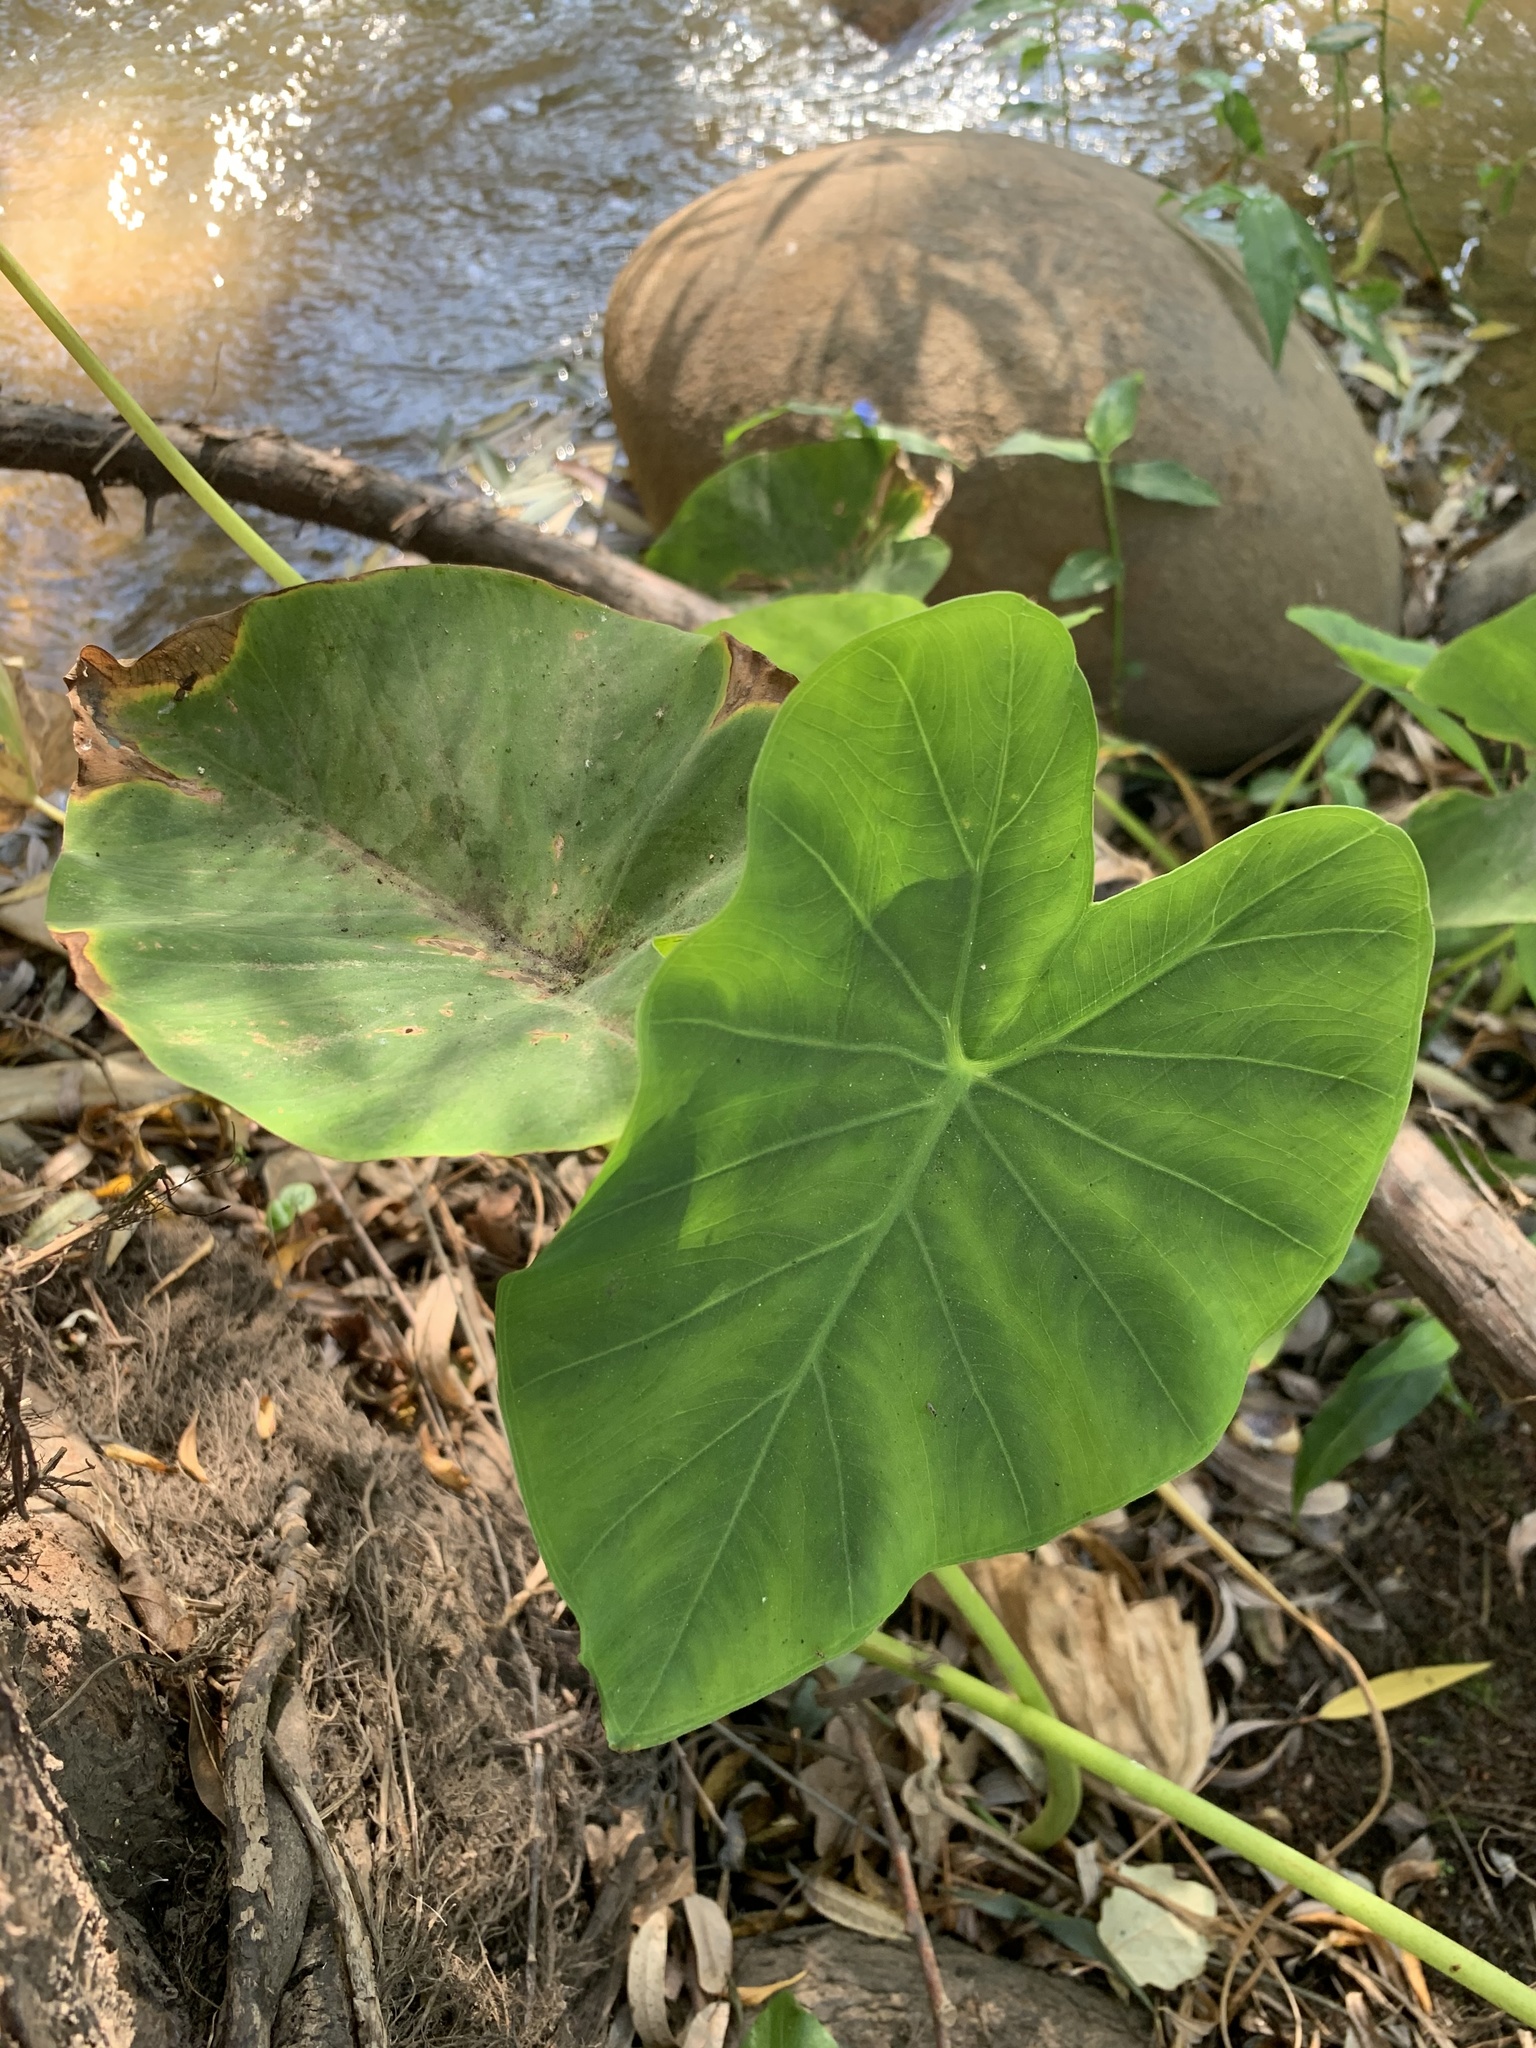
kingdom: Plantae
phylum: Tracheophyta
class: Liliopsida
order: Alismatales
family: Araceae
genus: Colocasia
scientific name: Colocasia esculenta
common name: Taro
